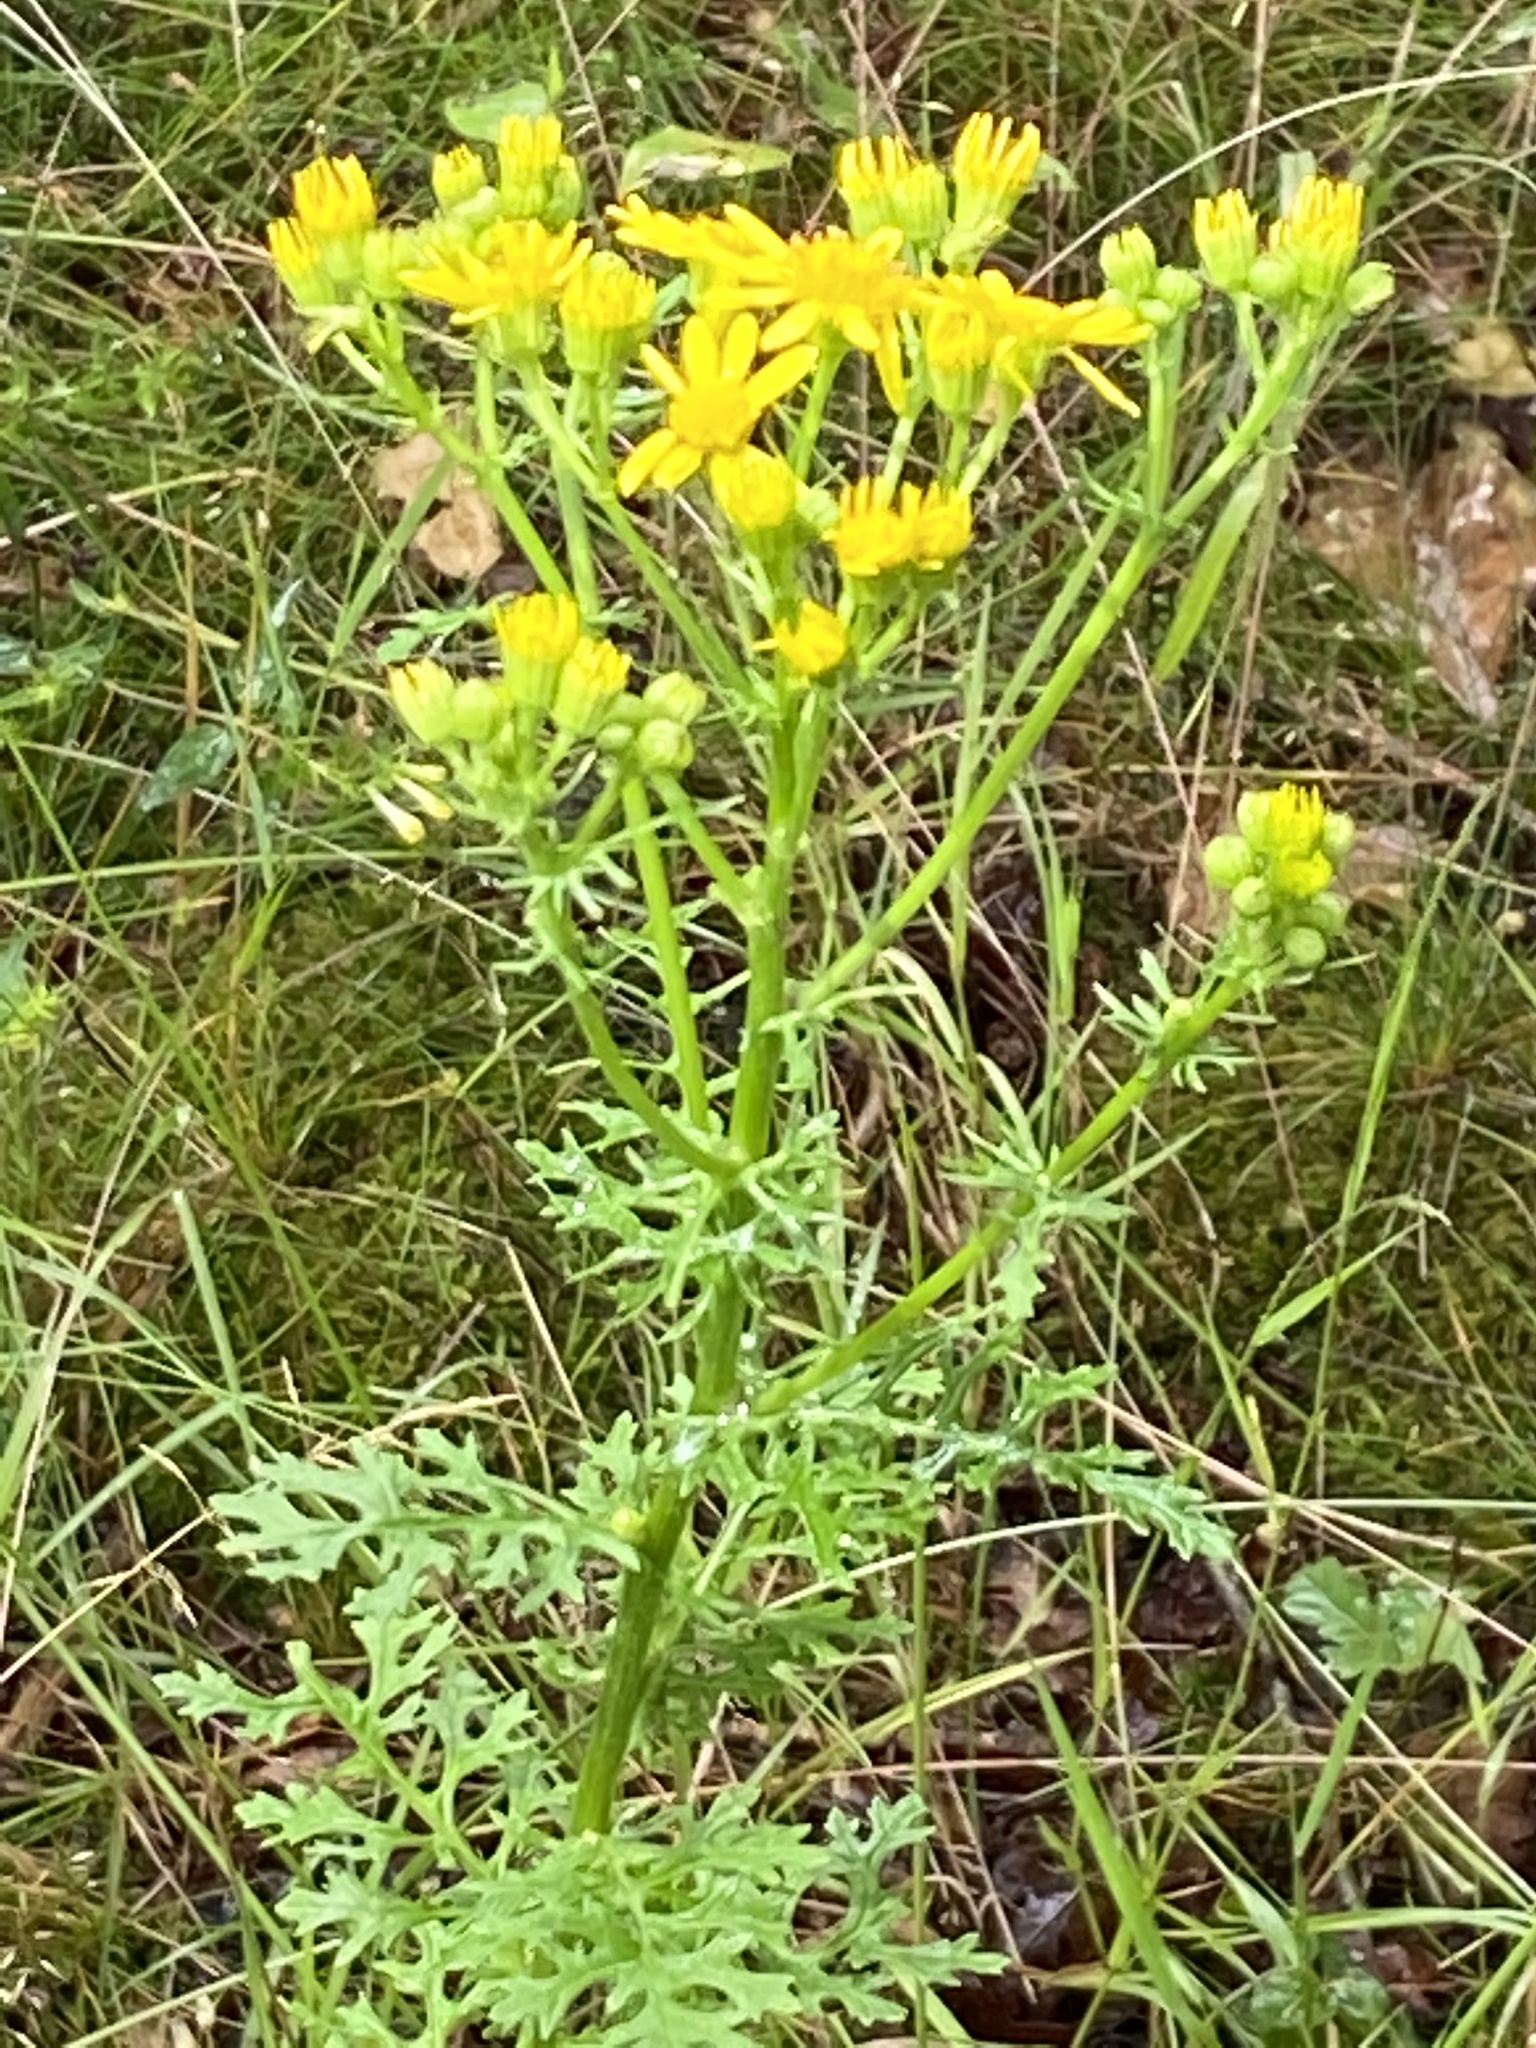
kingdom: Plantae
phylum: Tracheophyta
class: Magnoliopsida
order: Asterales
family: Asteraceae
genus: Jacobaea
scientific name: Jacobaea vulgaris
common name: Stinking willie
